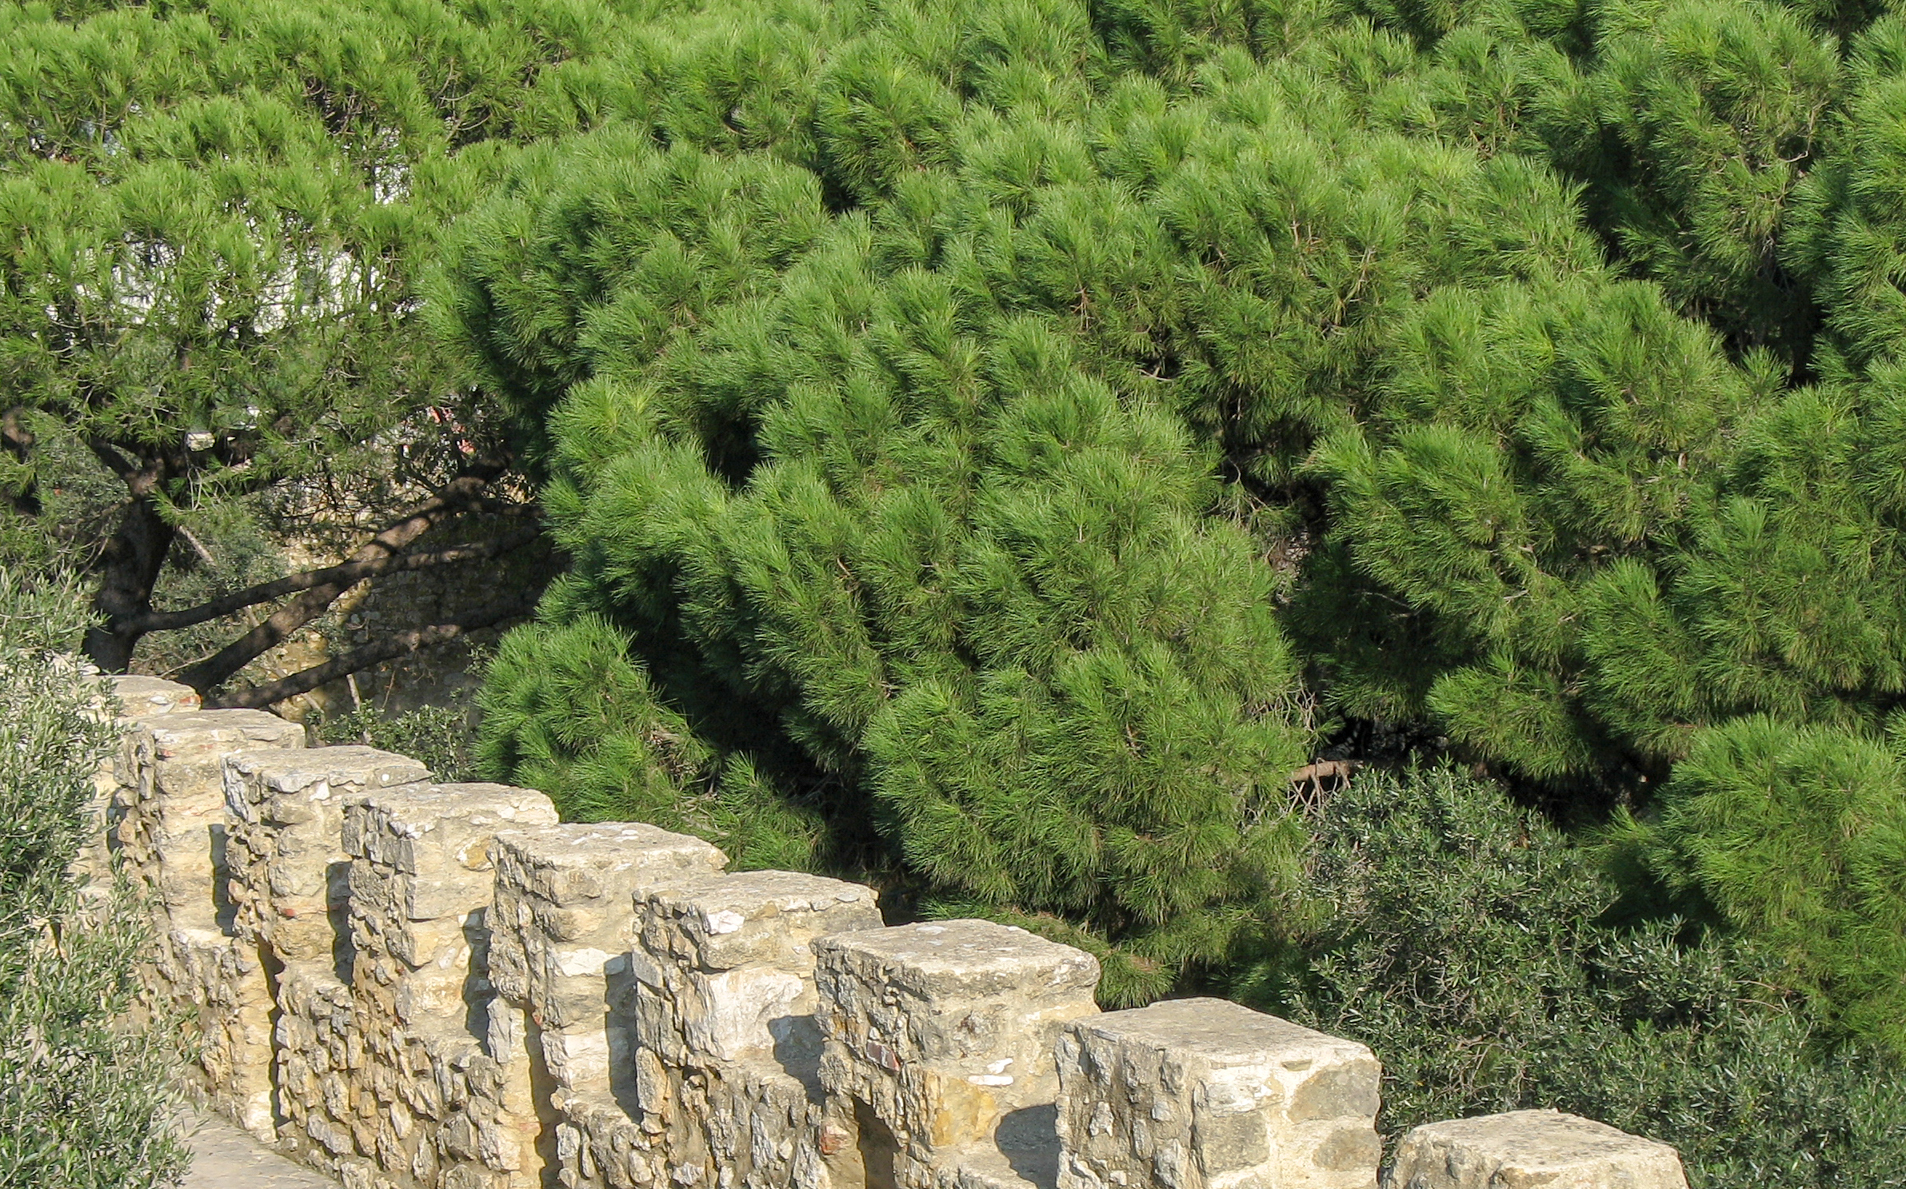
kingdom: Plantae
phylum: Tracheophyta
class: Pinopsida
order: Pinales
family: Pinaceae
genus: Pinus
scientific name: Pinus pinea
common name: Italian stone pine
